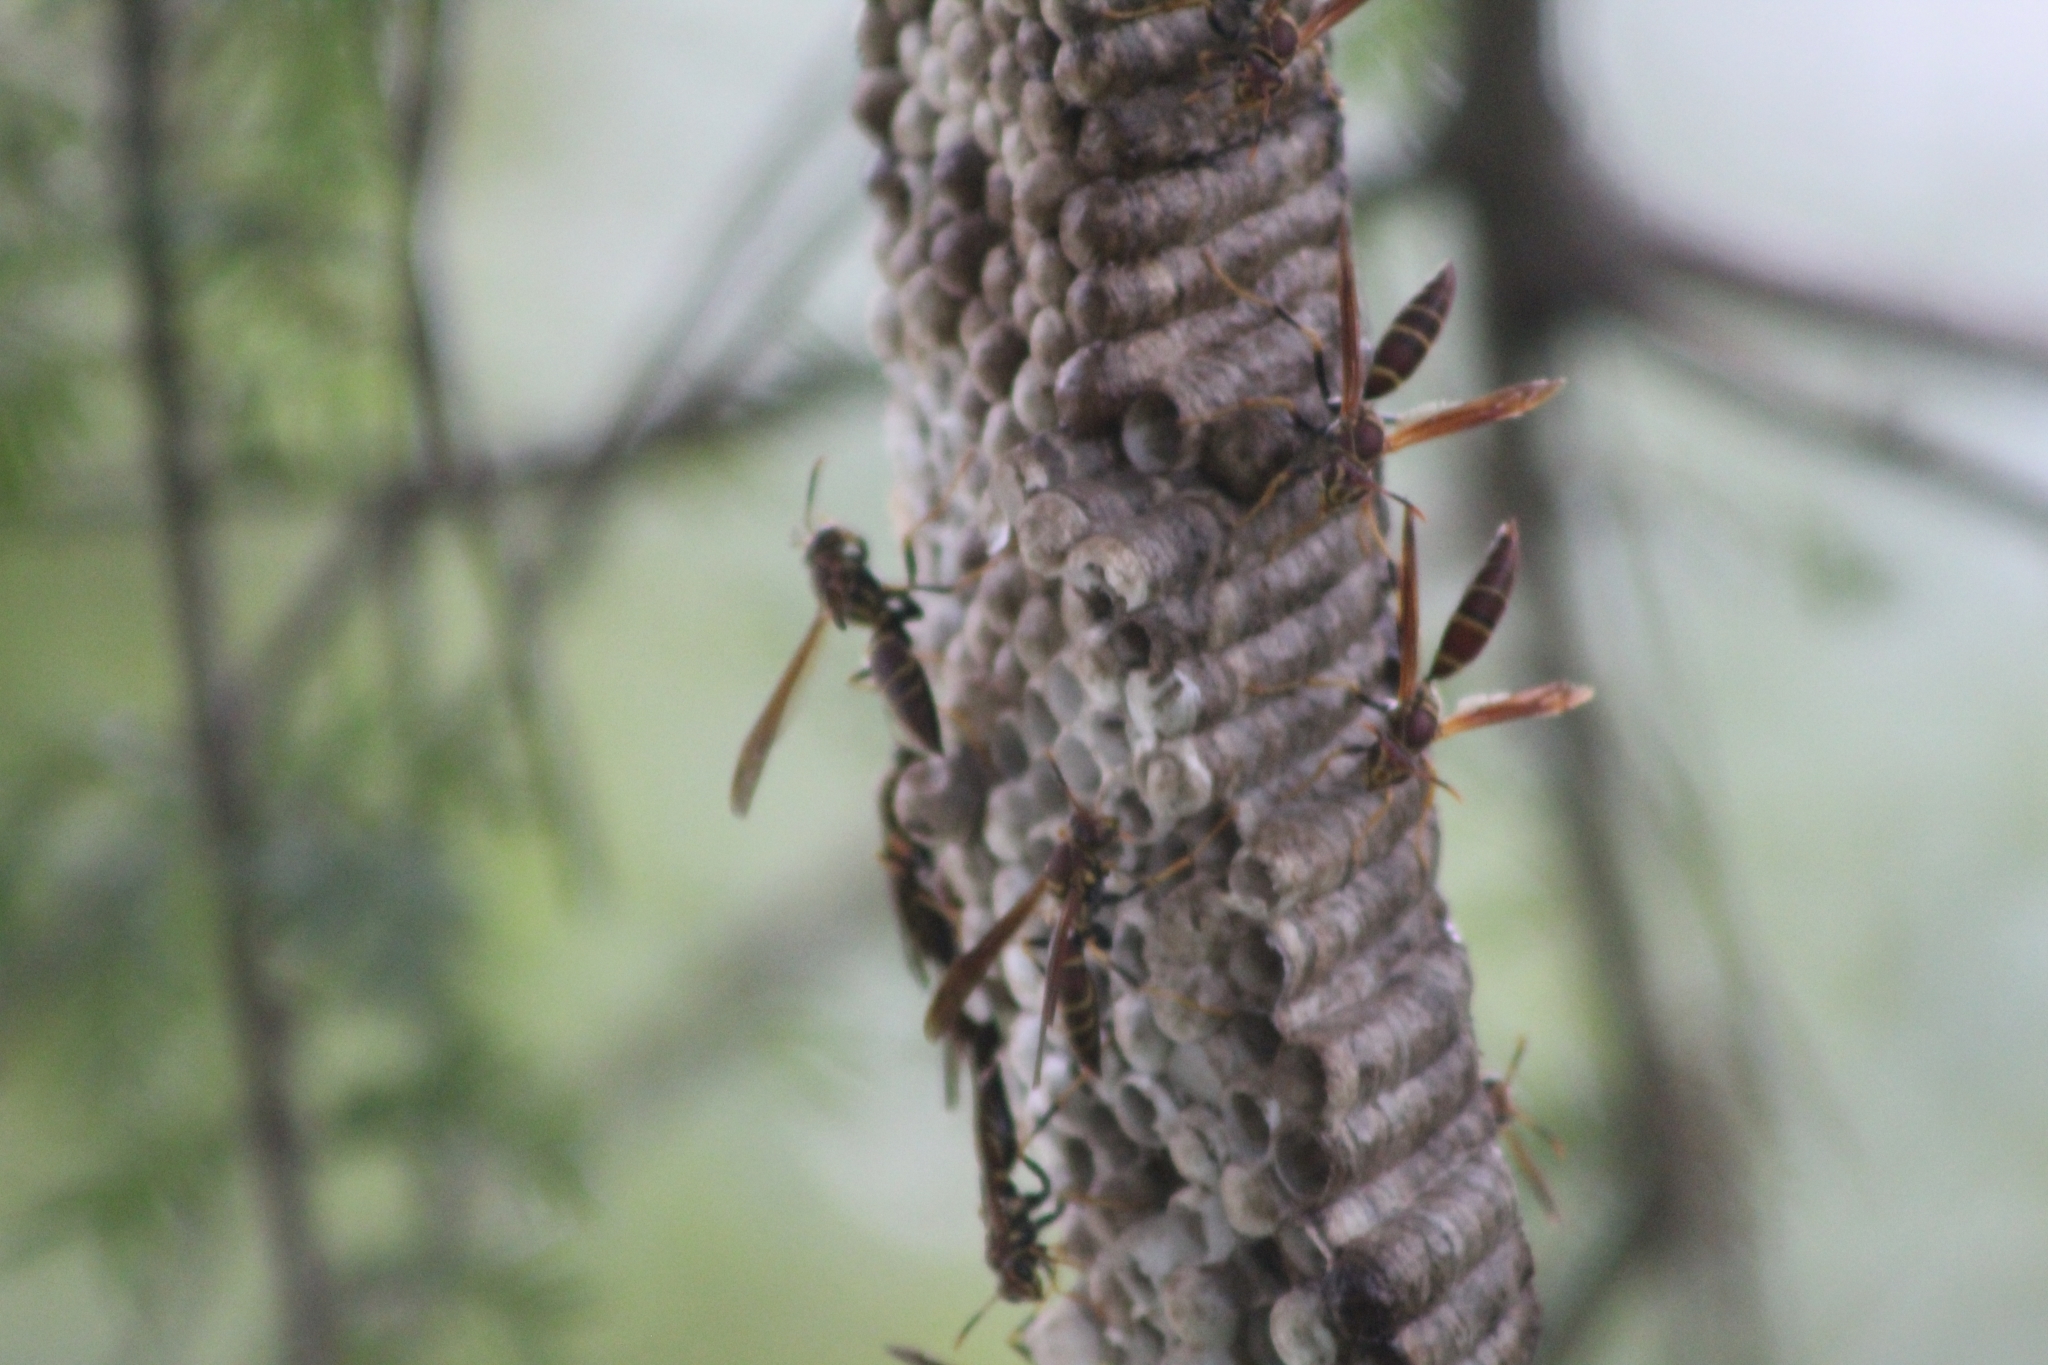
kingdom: Animalia
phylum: Arthropoda
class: Insecta
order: Hymenoptera
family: Eumenidae
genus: Polistes
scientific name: Polistes instabilis
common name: Unstable paper wasp
